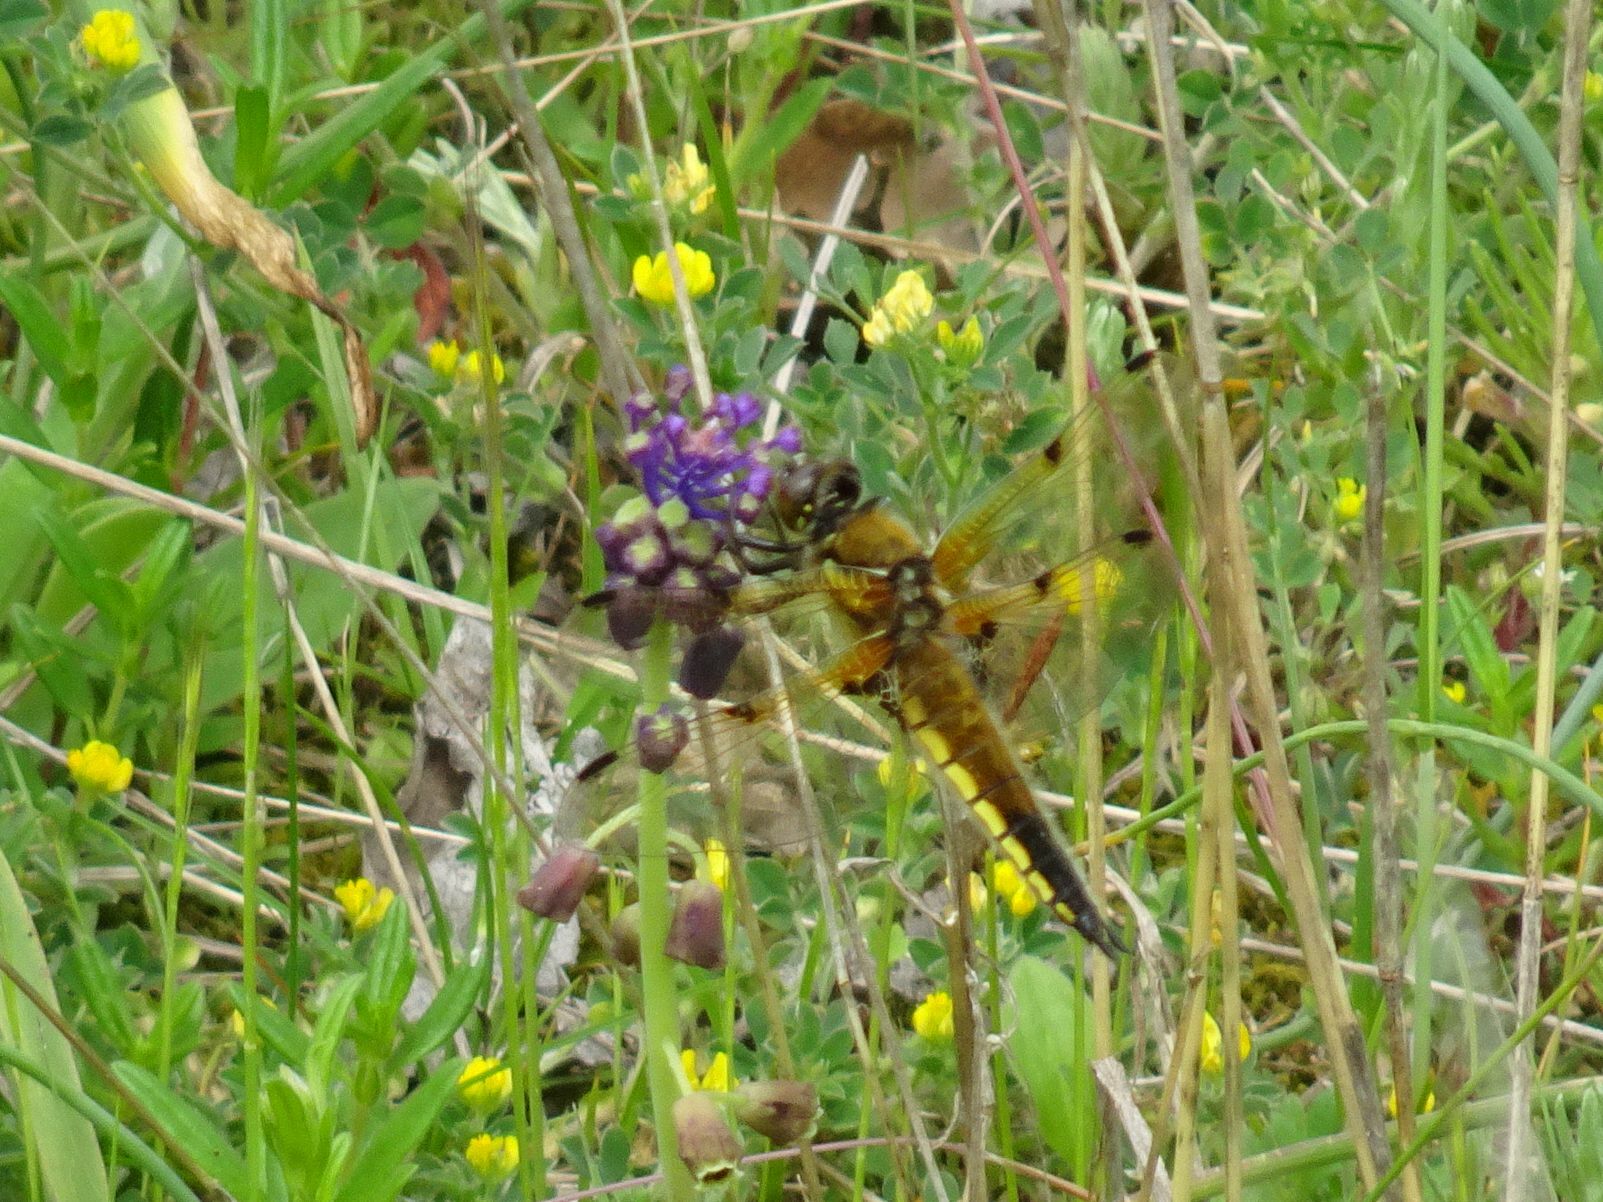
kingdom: Animalia
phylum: Arthropoda
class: Insecta
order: Odonata
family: Libellulidae
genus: Libellula
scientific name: Libellula quadrimaculata
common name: Four-spotted chaser
